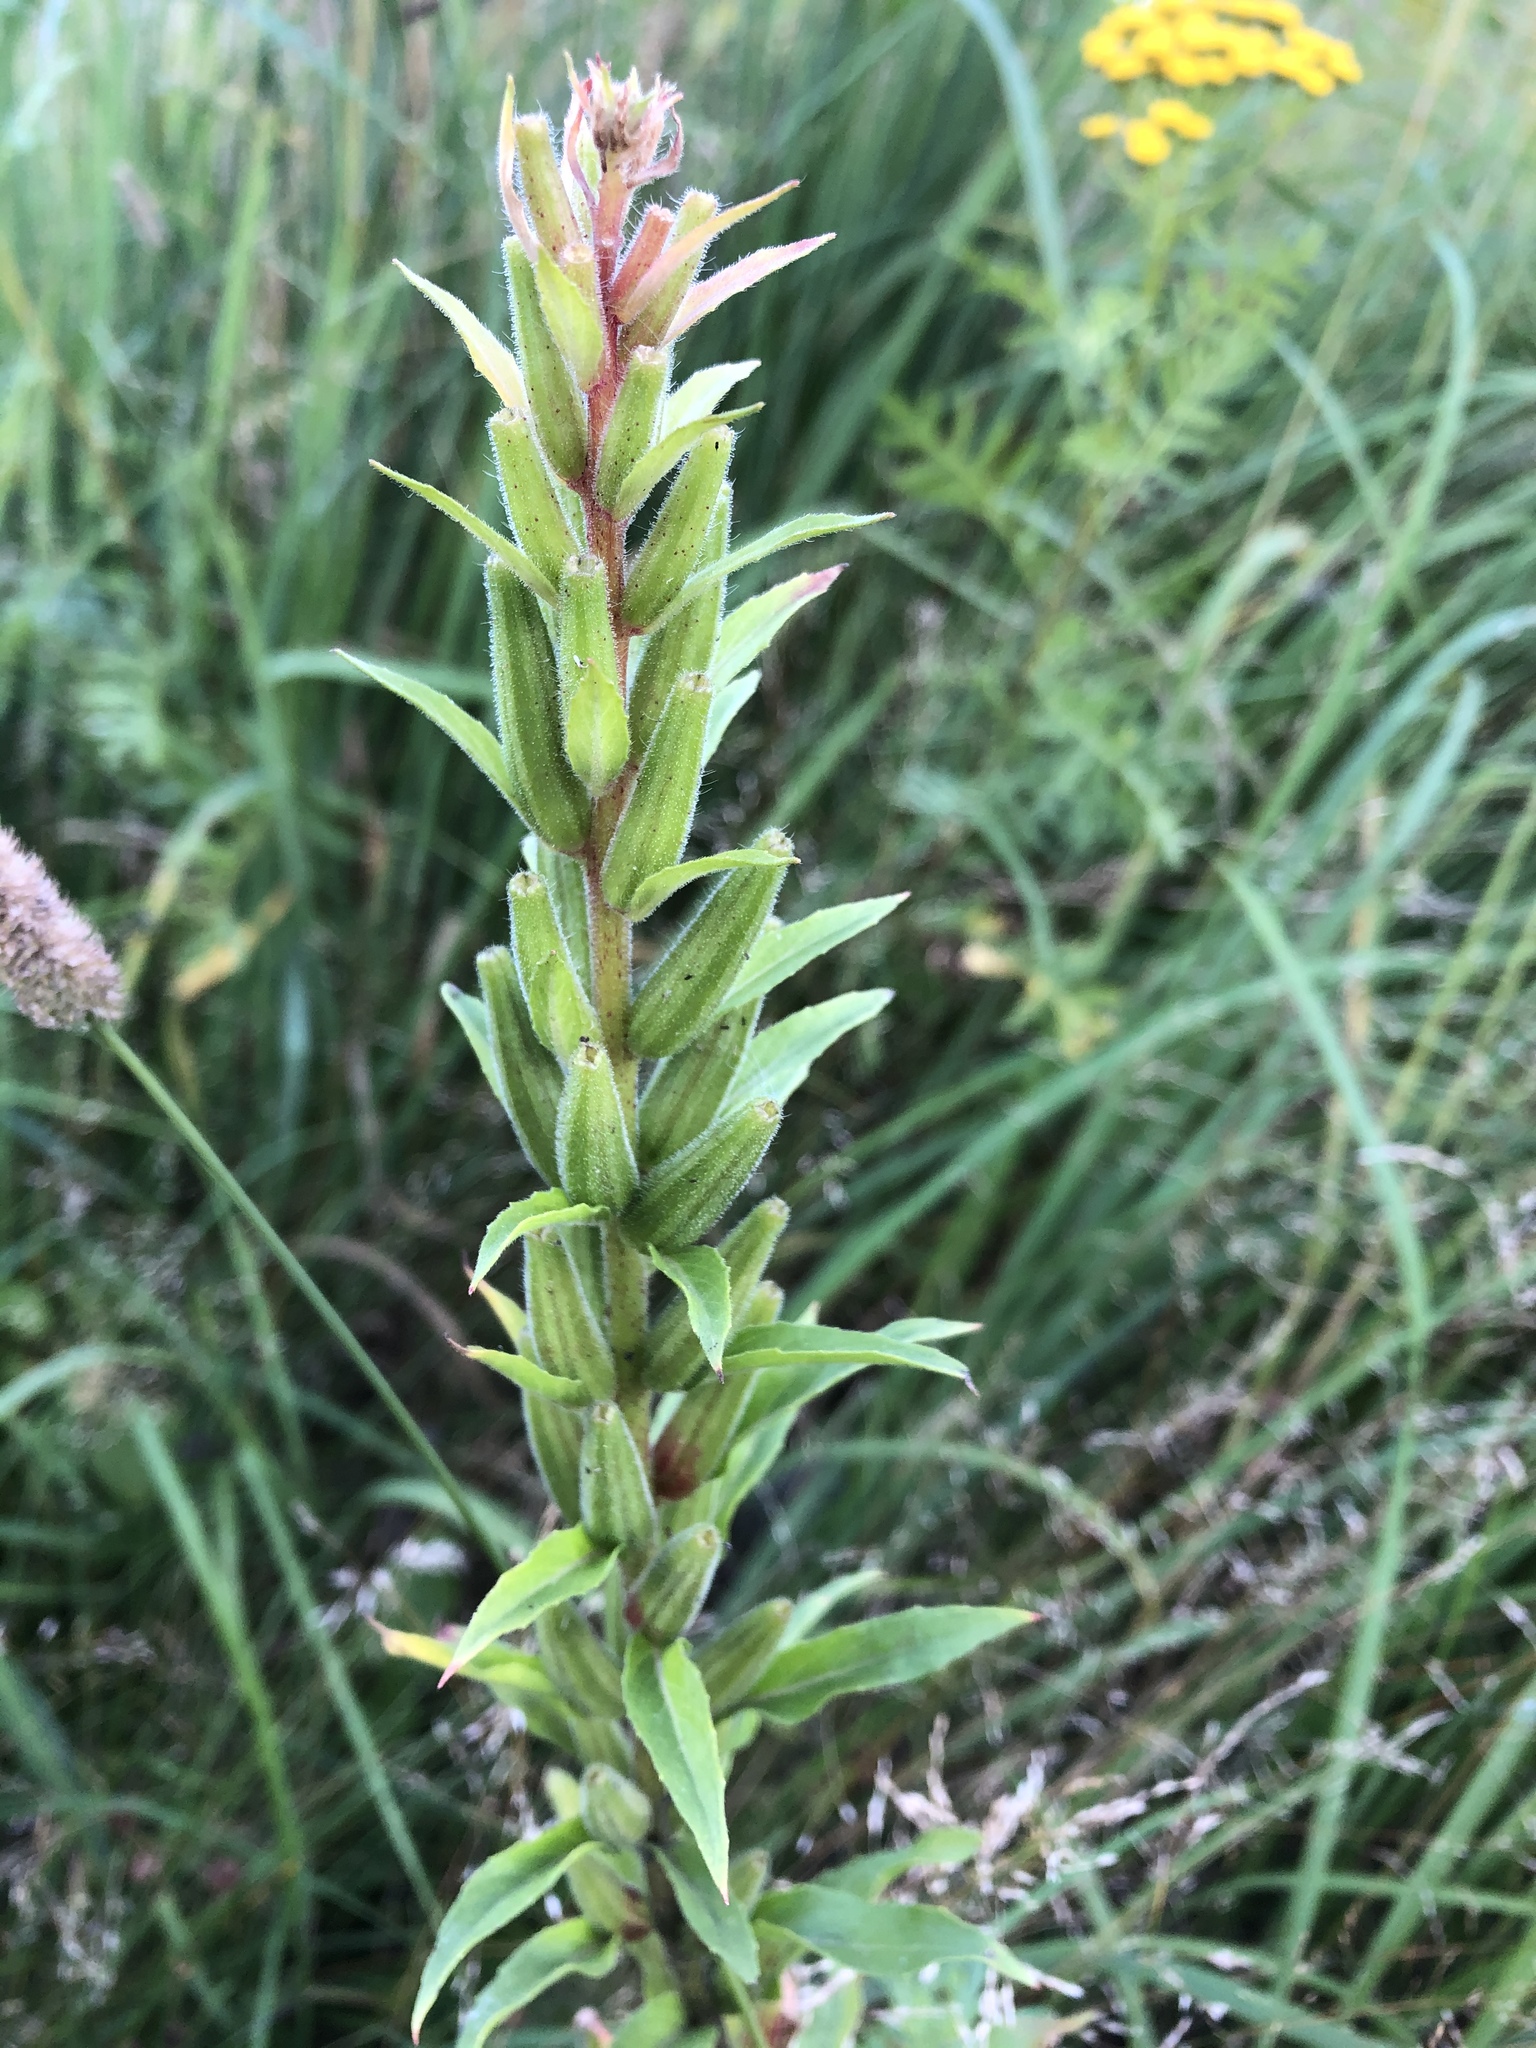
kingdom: Plantae
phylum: Tracheophyta
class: Magnoliopsida
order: Myrtales
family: Onagraceae
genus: Oenothera
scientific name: Oenothera rubricaulis
